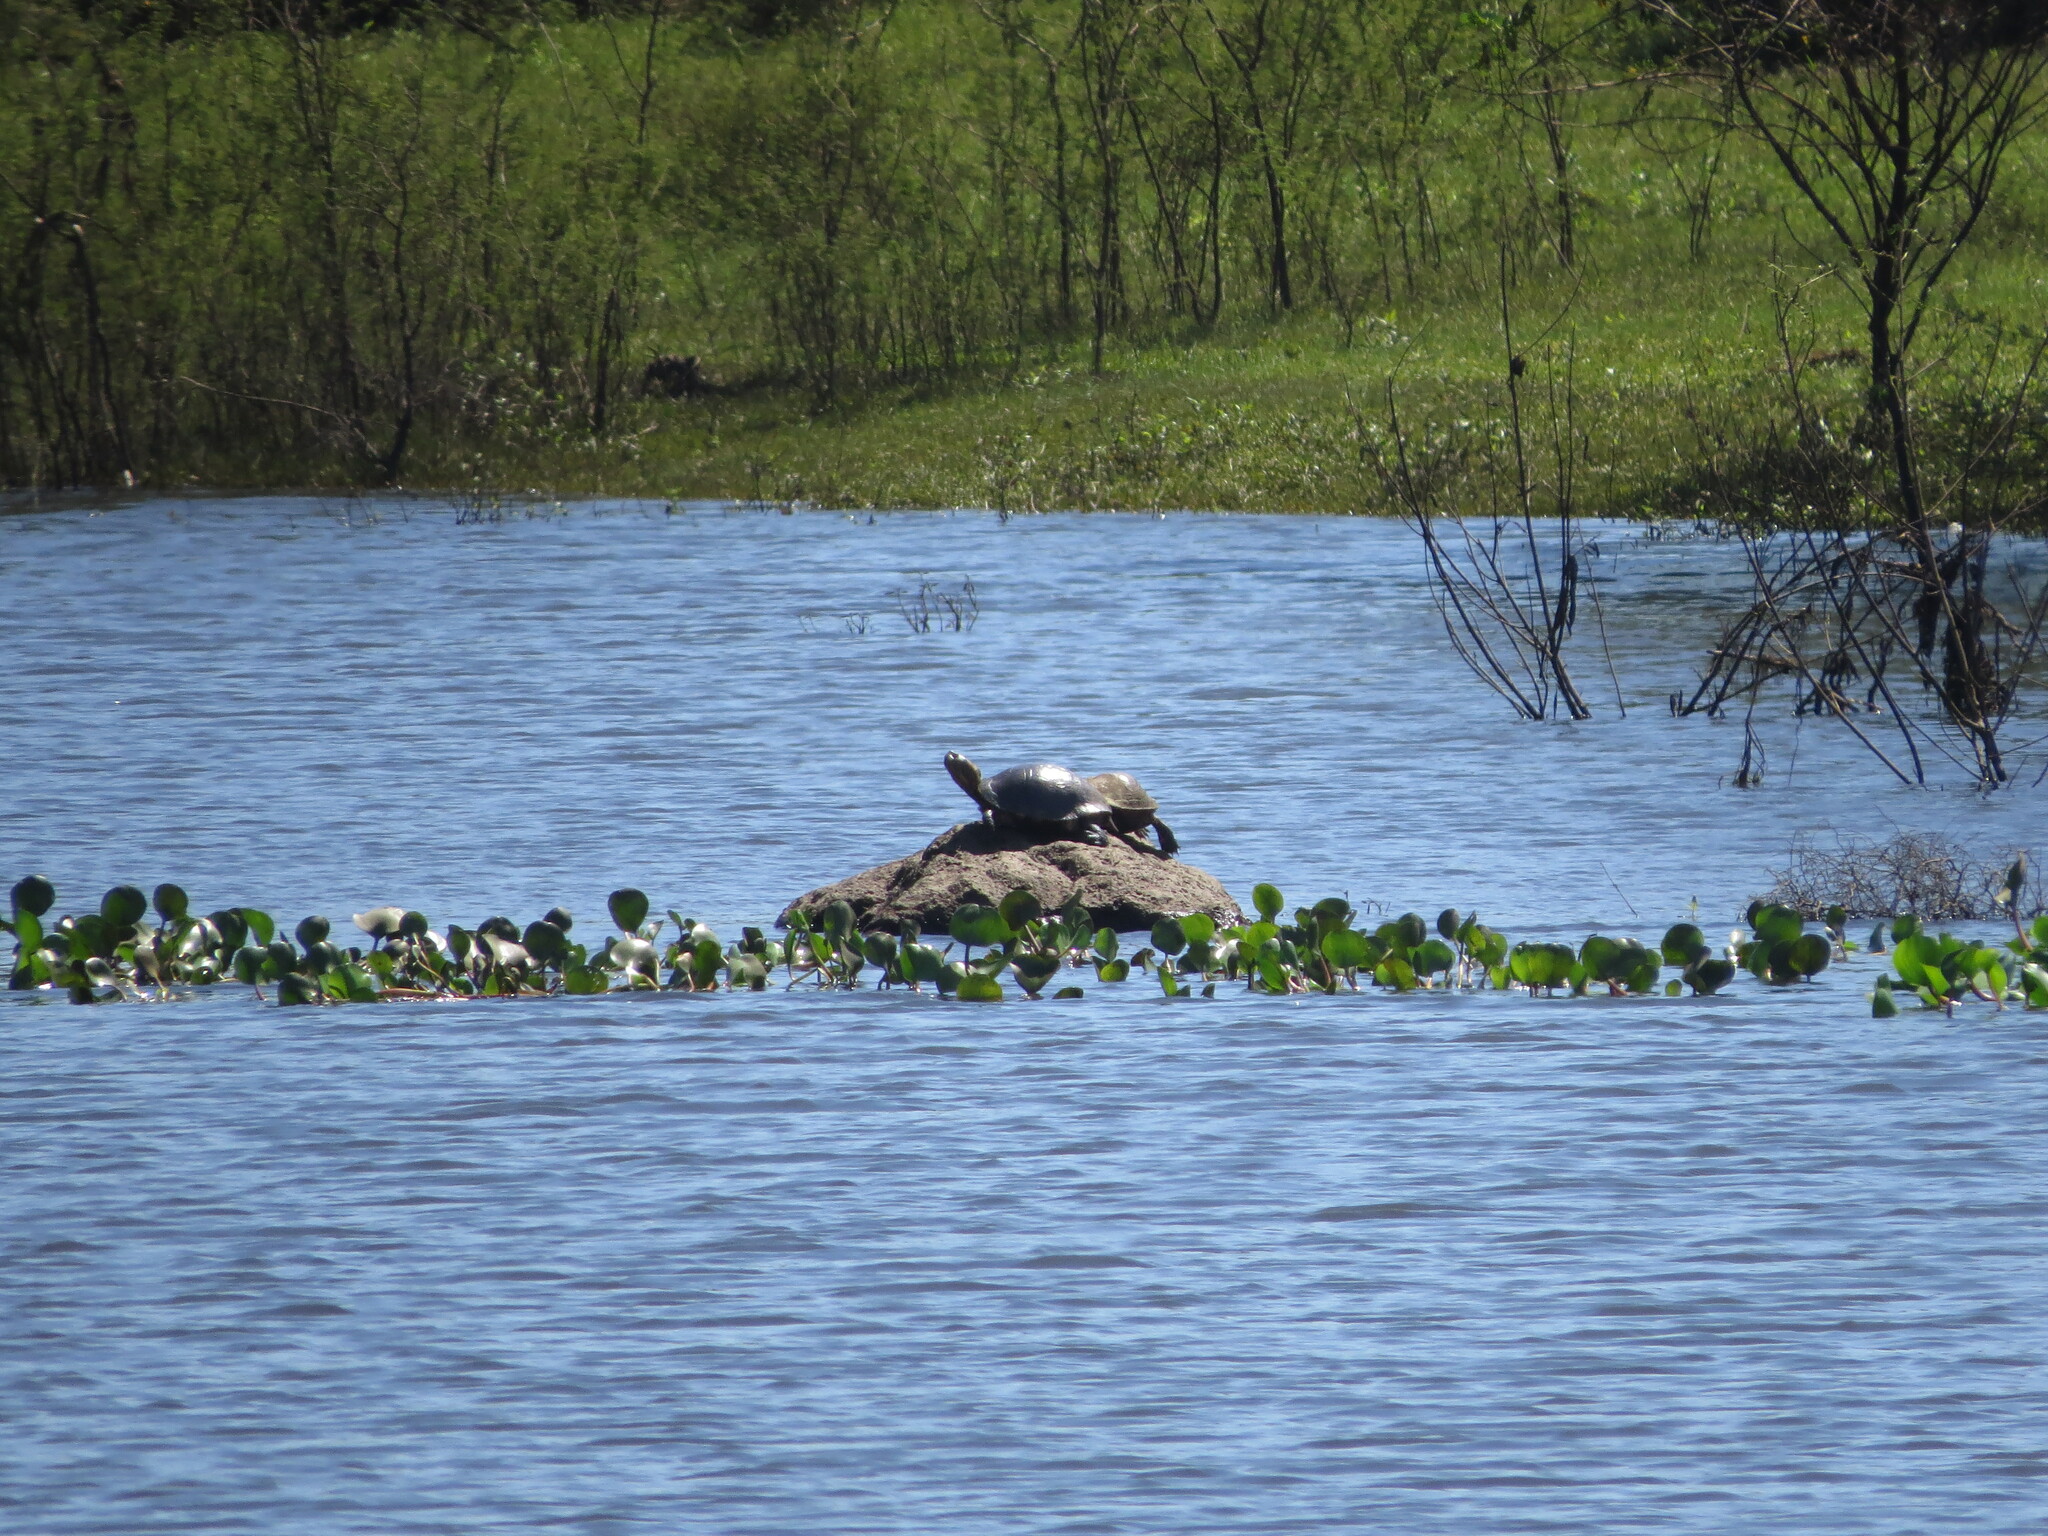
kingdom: Animalia
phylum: Chordata
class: Testudines
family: Emydidae
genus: Trachemys
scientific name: Trachemys dorbigni
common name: Black-bellied slider
